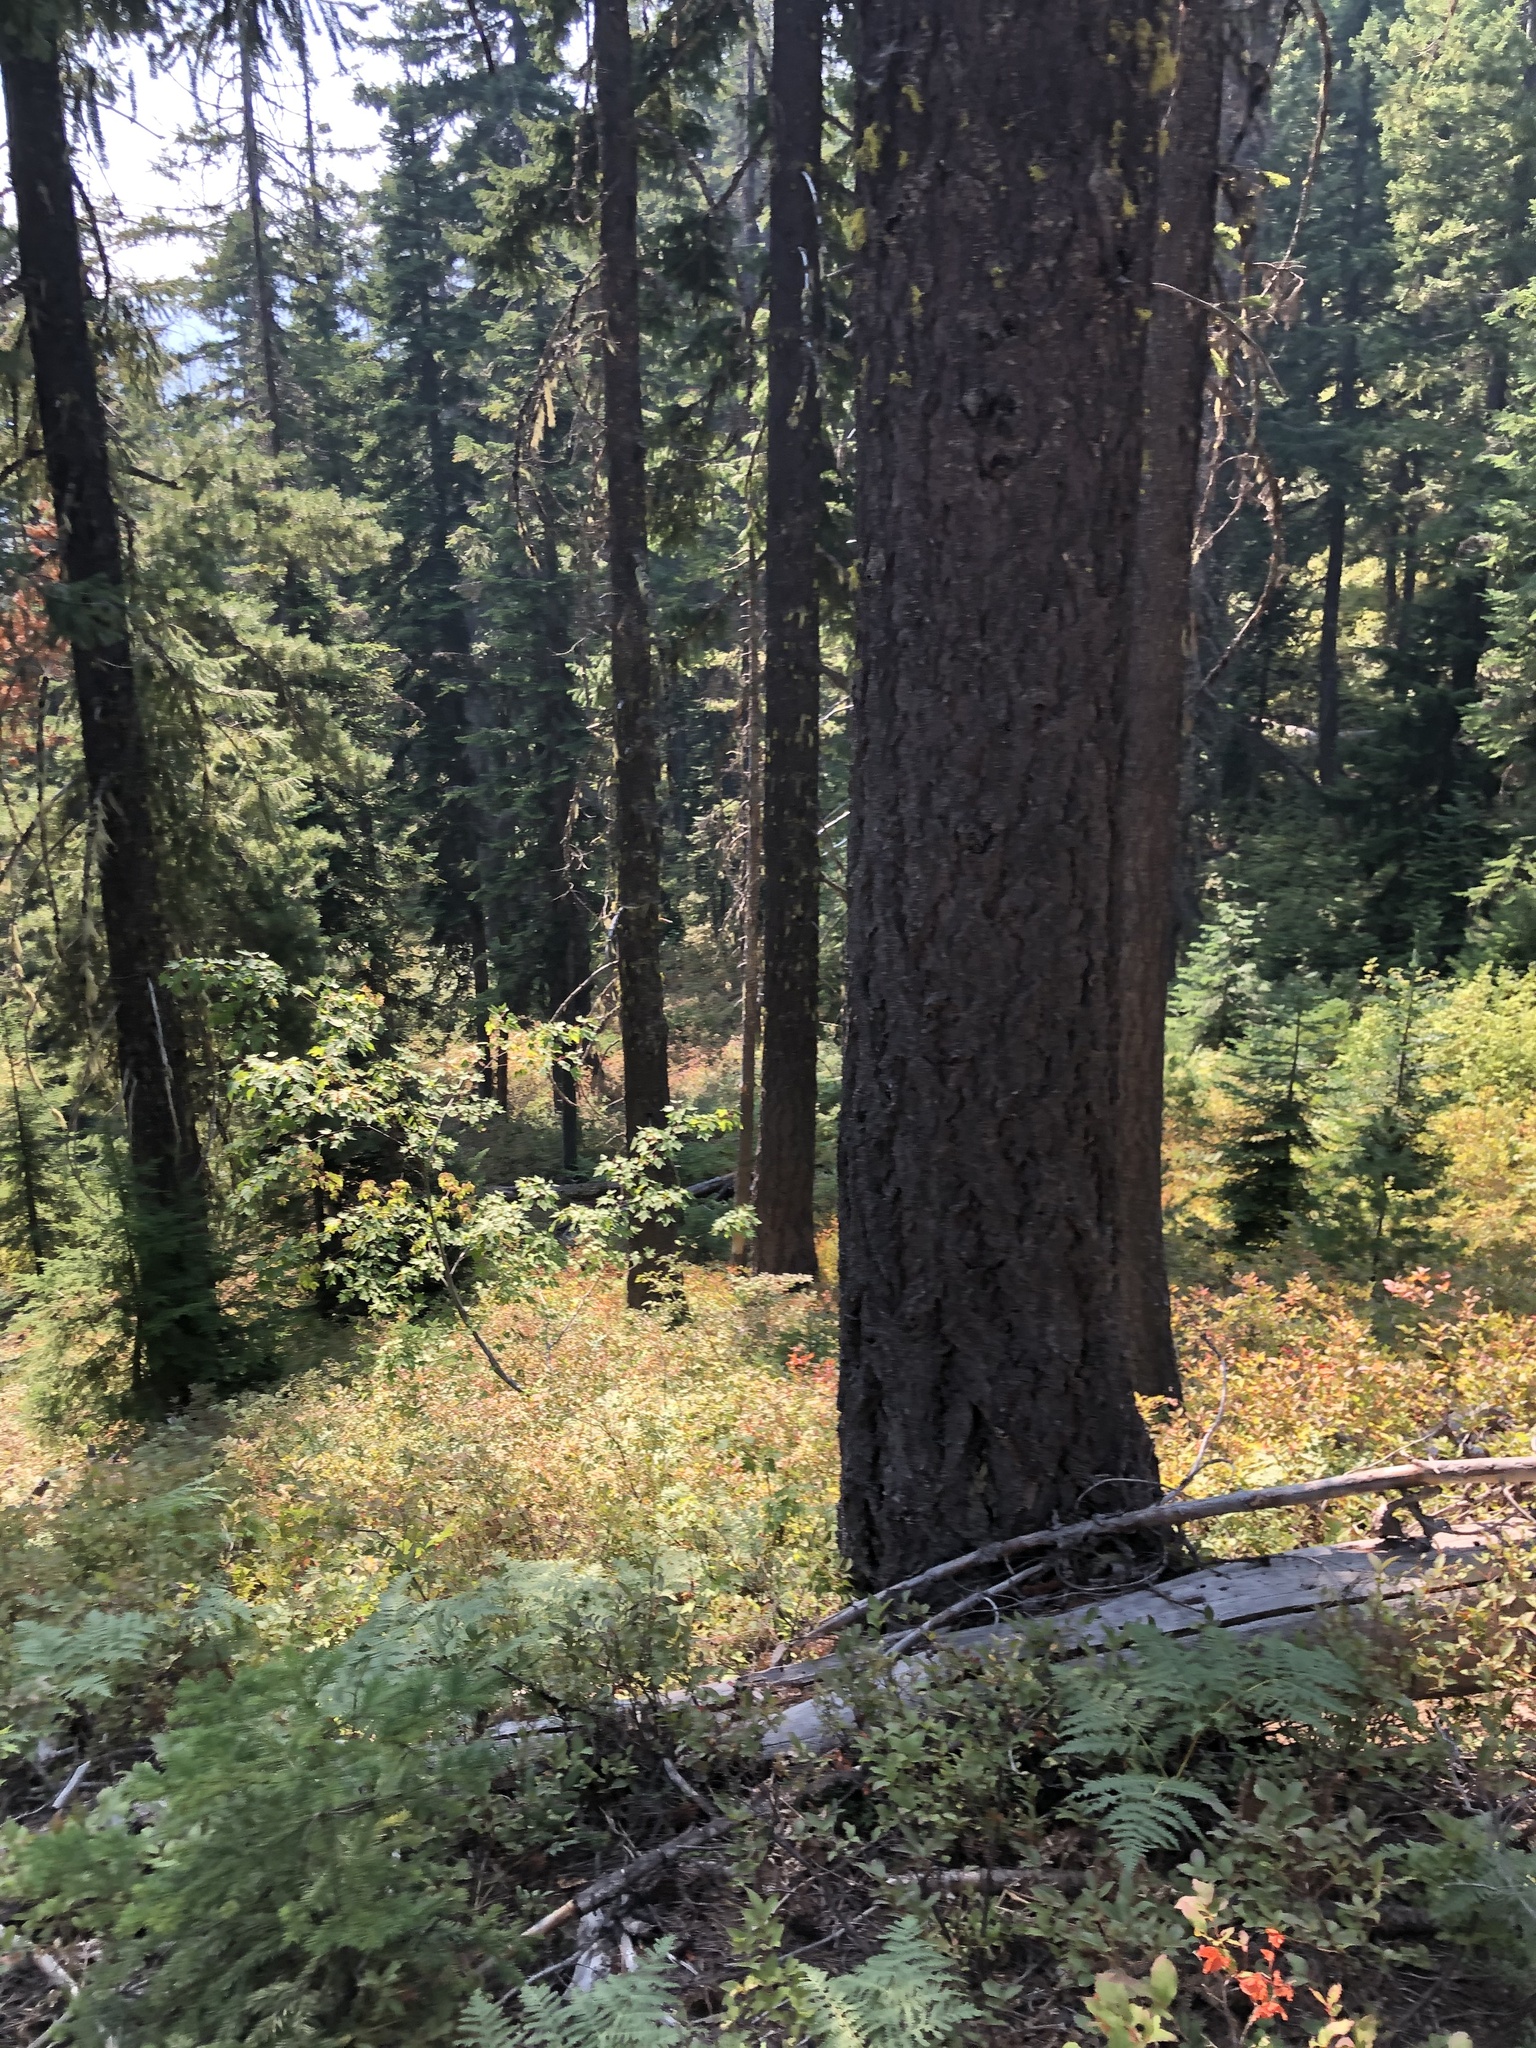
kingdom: Plantae
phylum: Tracheophyta
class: Pinopsida
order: Pinales
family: Pinaceae
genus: Pseudotsuga
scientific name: Pseudotsuga menziesii
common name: Douglas fir
